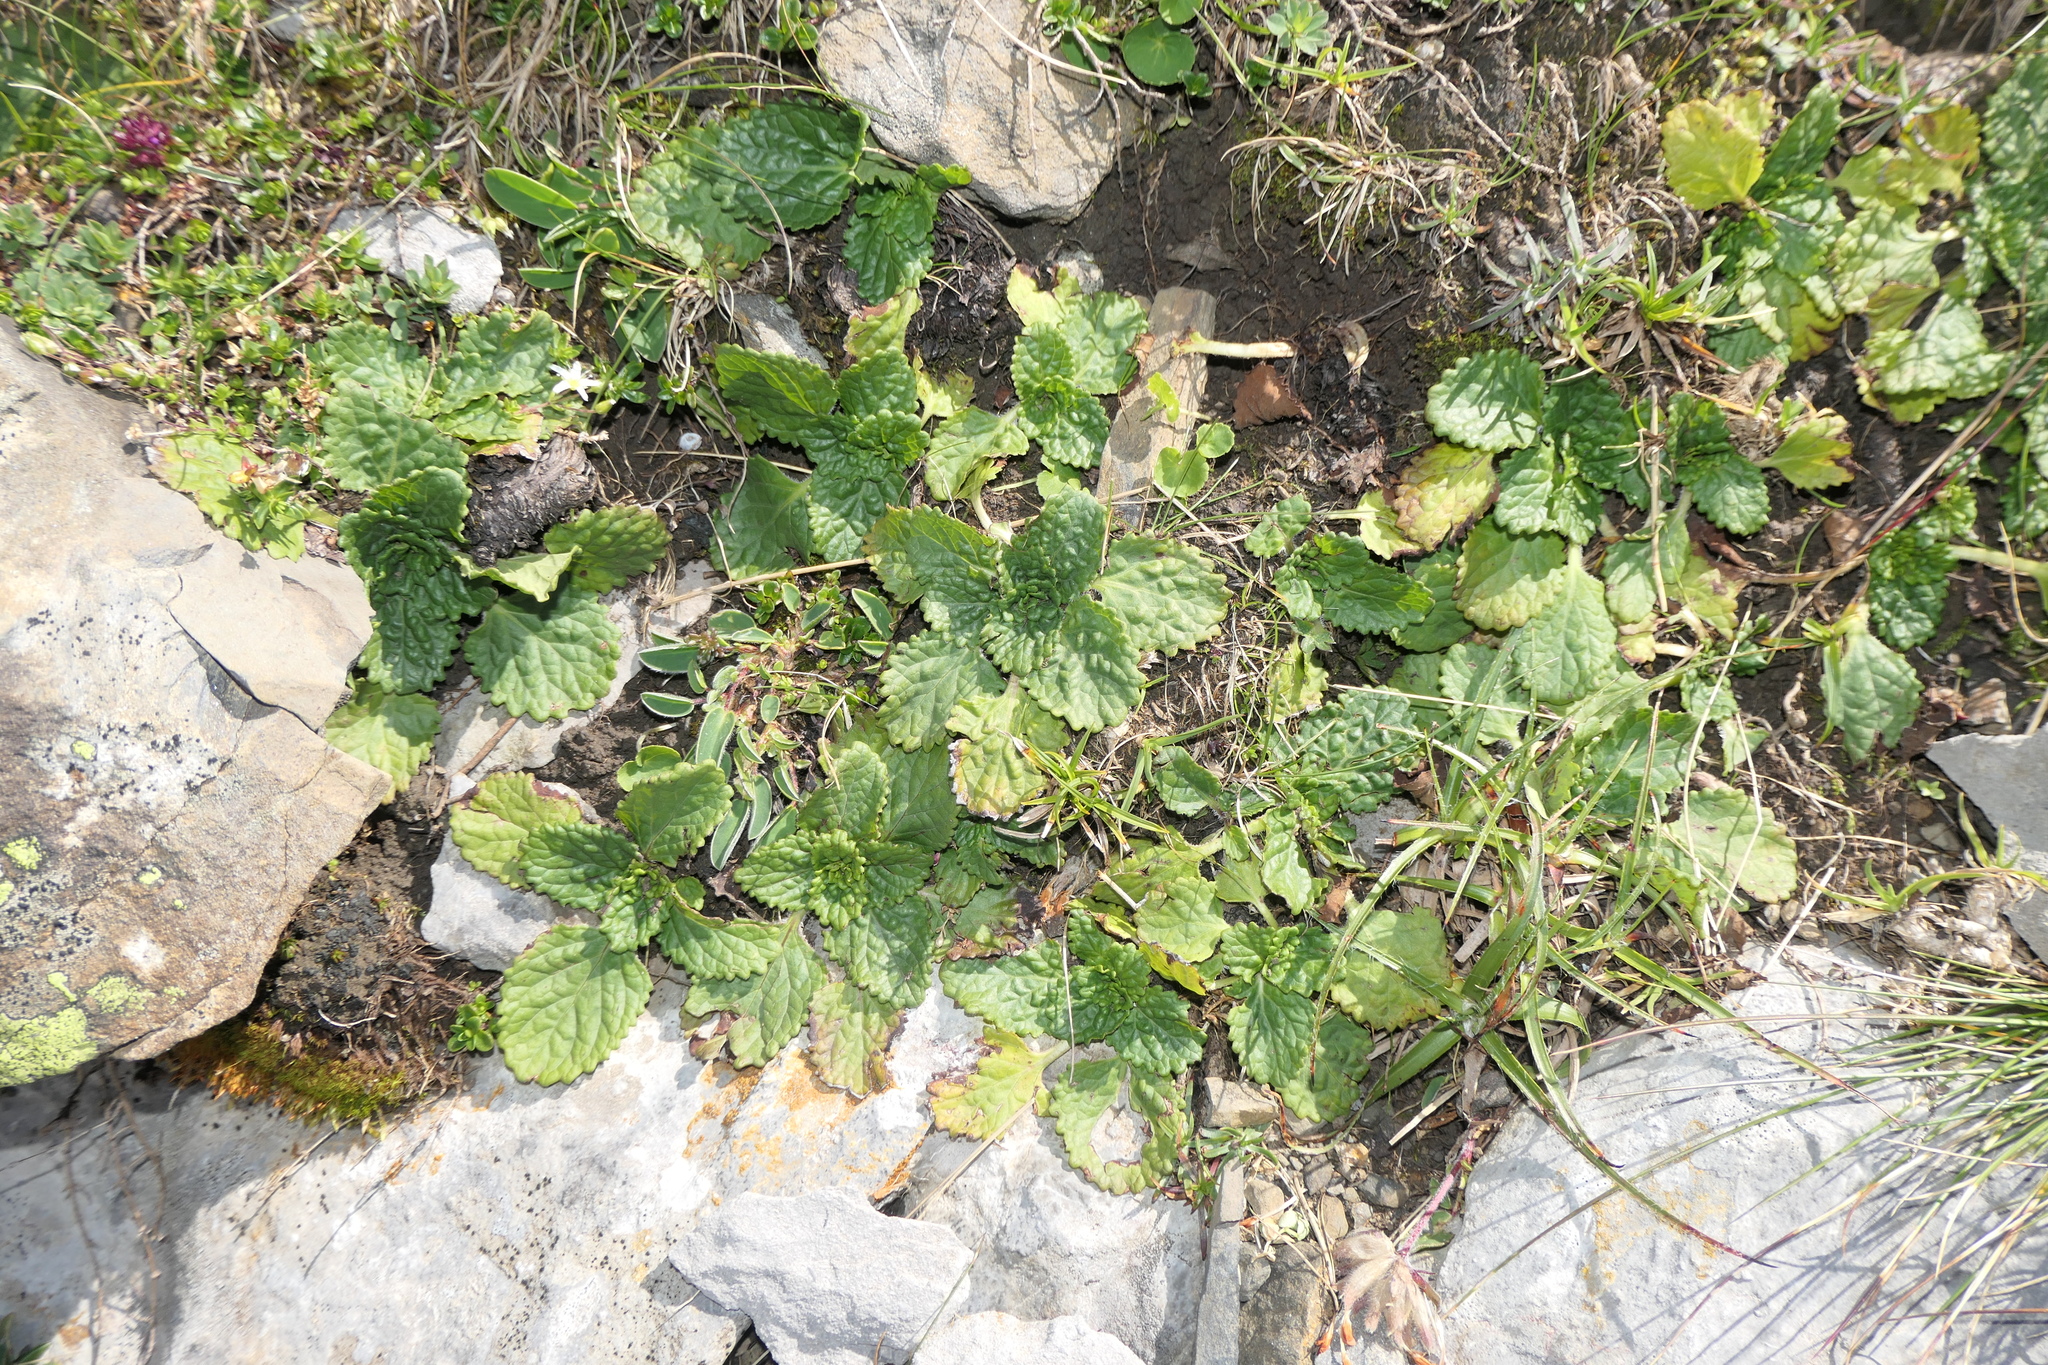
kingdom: Plantae
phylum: Tracheophyta
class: Magnoliopsida
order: Lamiales
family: Lamiaceae
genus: Horminum
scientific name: Horminum pyrenaicum
